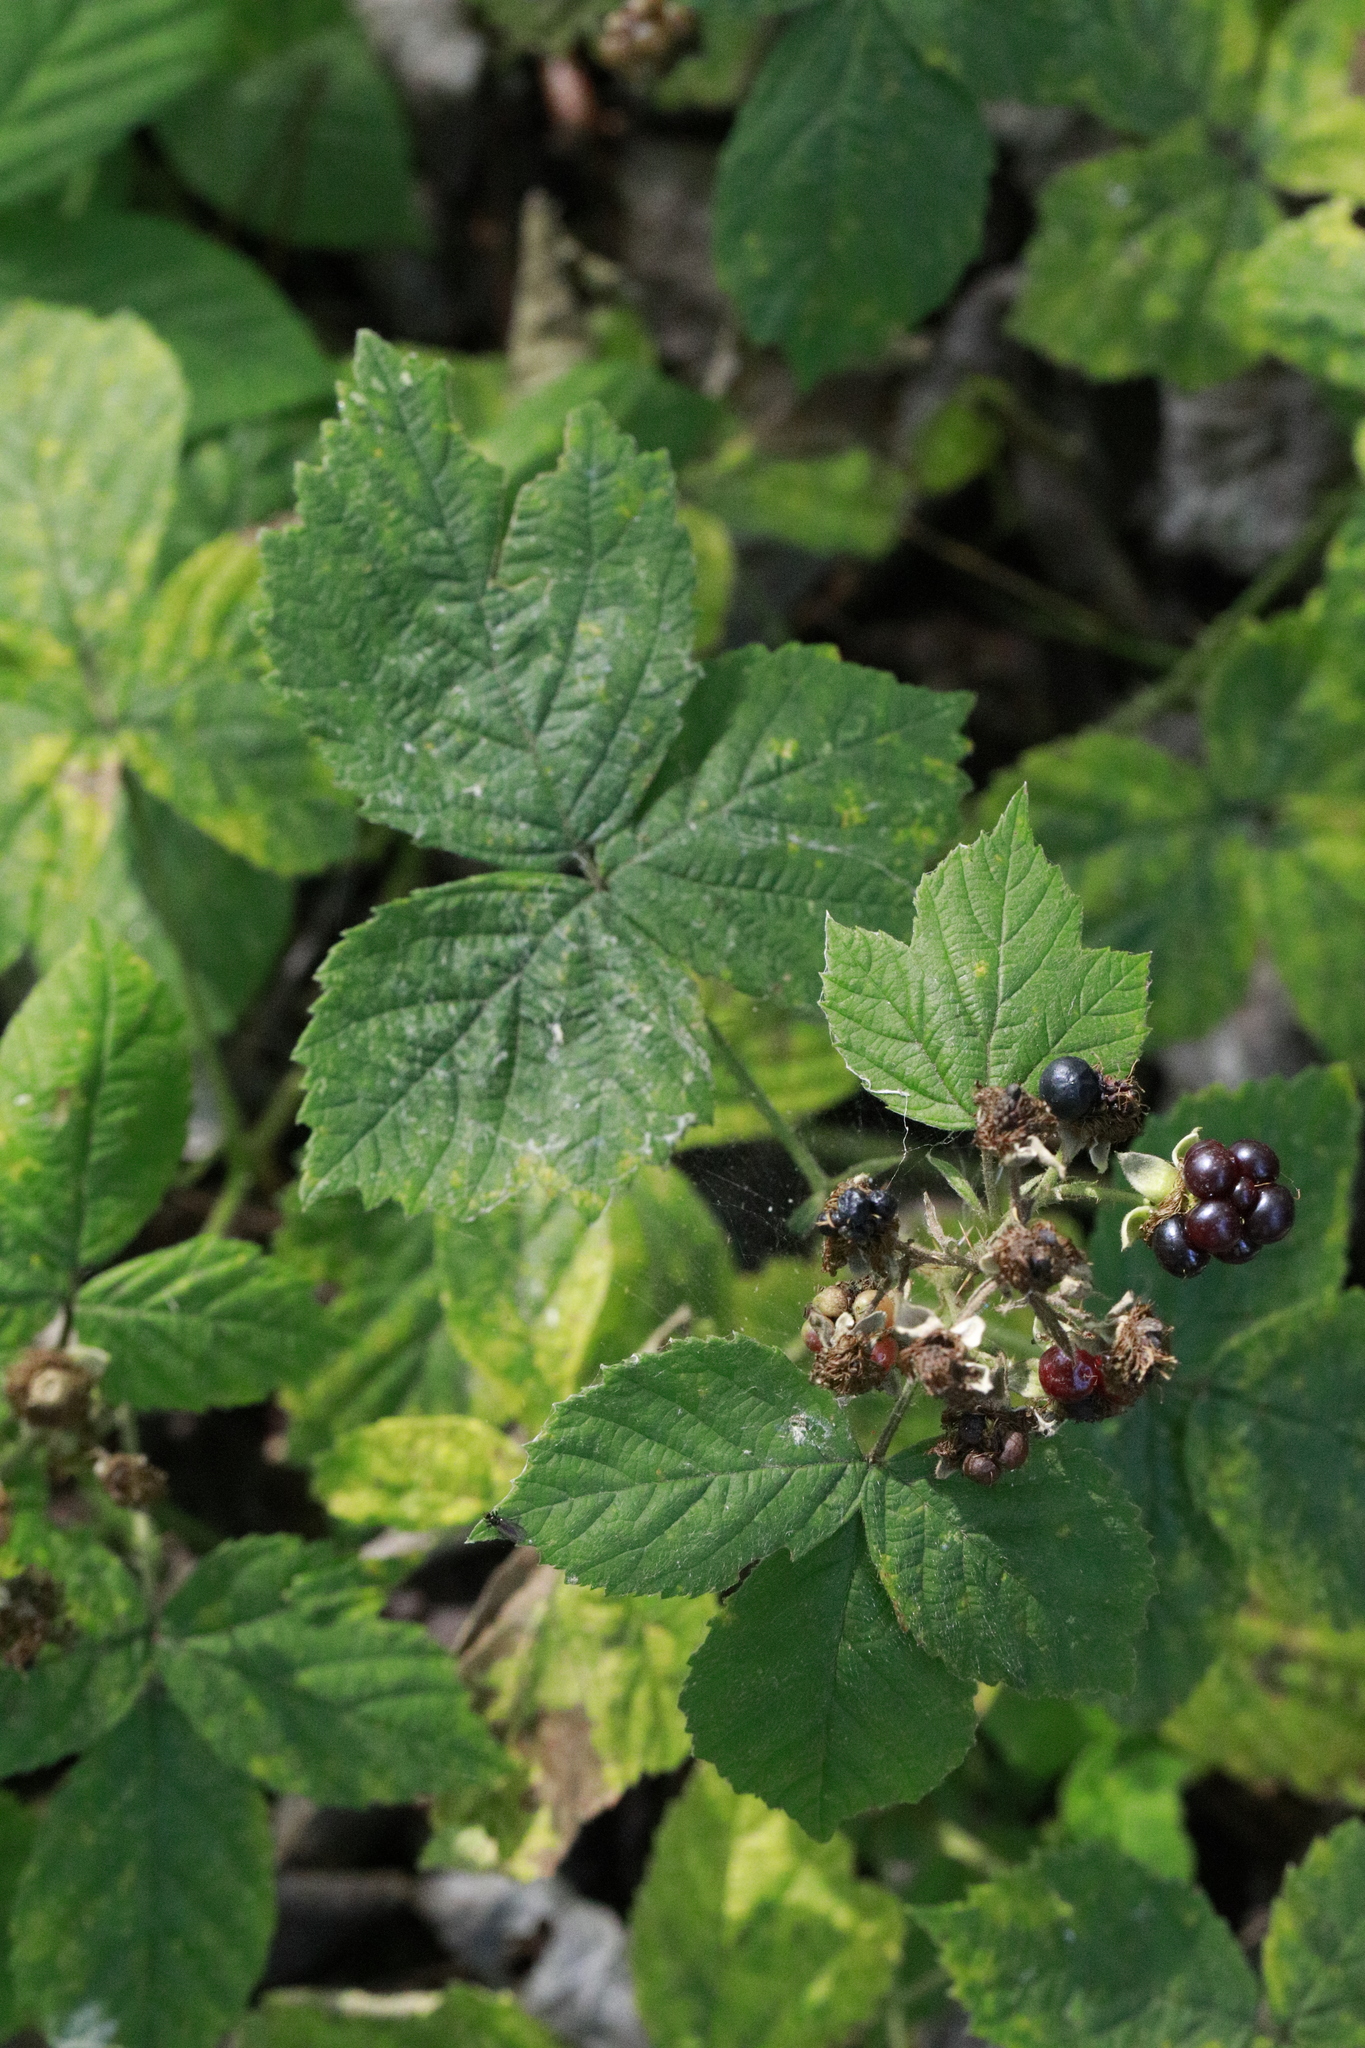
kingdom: Plantae
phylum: Tracheophyta
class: Magnoliopsida
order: Rosales
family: Rosaceae
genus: Rubus
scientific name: Rubus horrefactus
